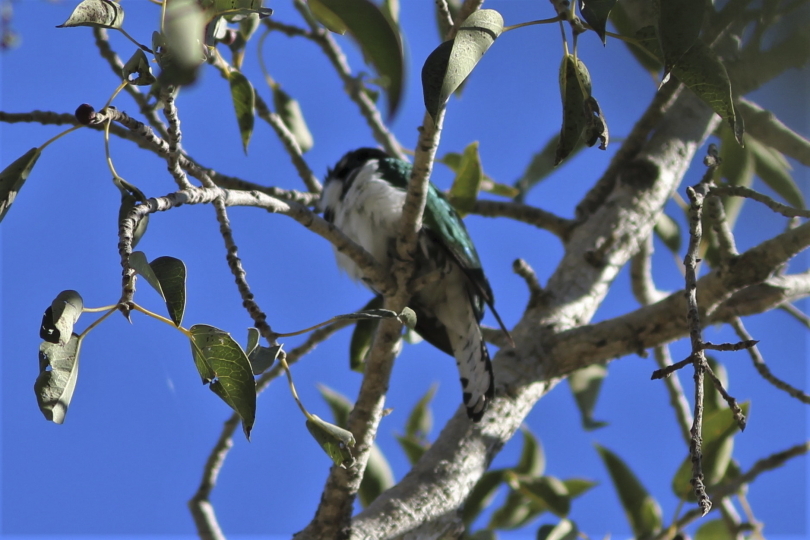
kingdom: Animalia
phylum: Chordata
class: Aves
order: Cuculiformes
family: Cuculidae
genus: Chrysococcyx
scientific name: Chrysococcyx klaas
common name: Klaas's cuckoo
